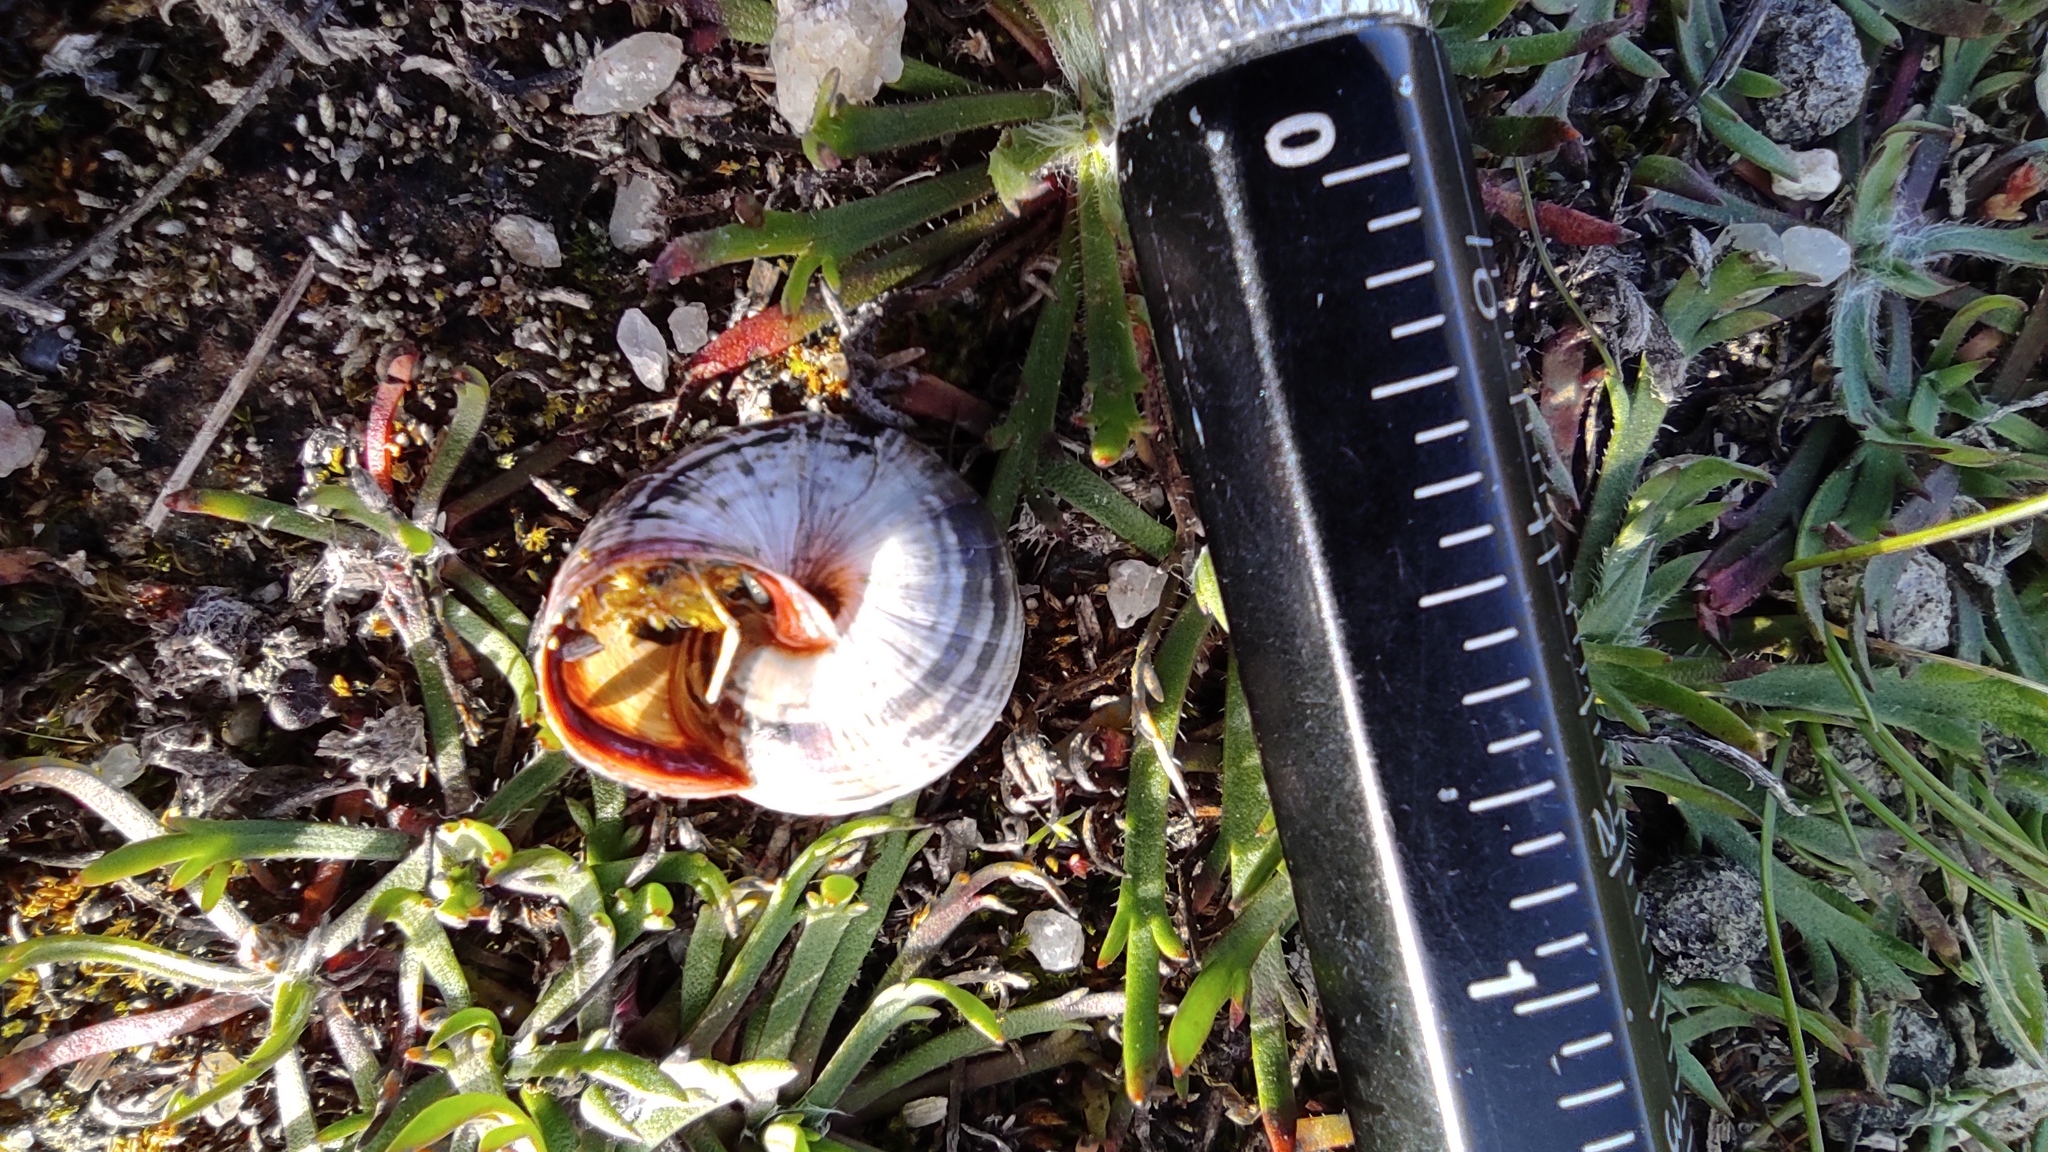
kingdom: Animalia
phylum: Mollusca
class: Gastropoda
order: Stylommatophora
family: Geomitridae
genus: Cernuella
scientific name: Cernuella virgata
